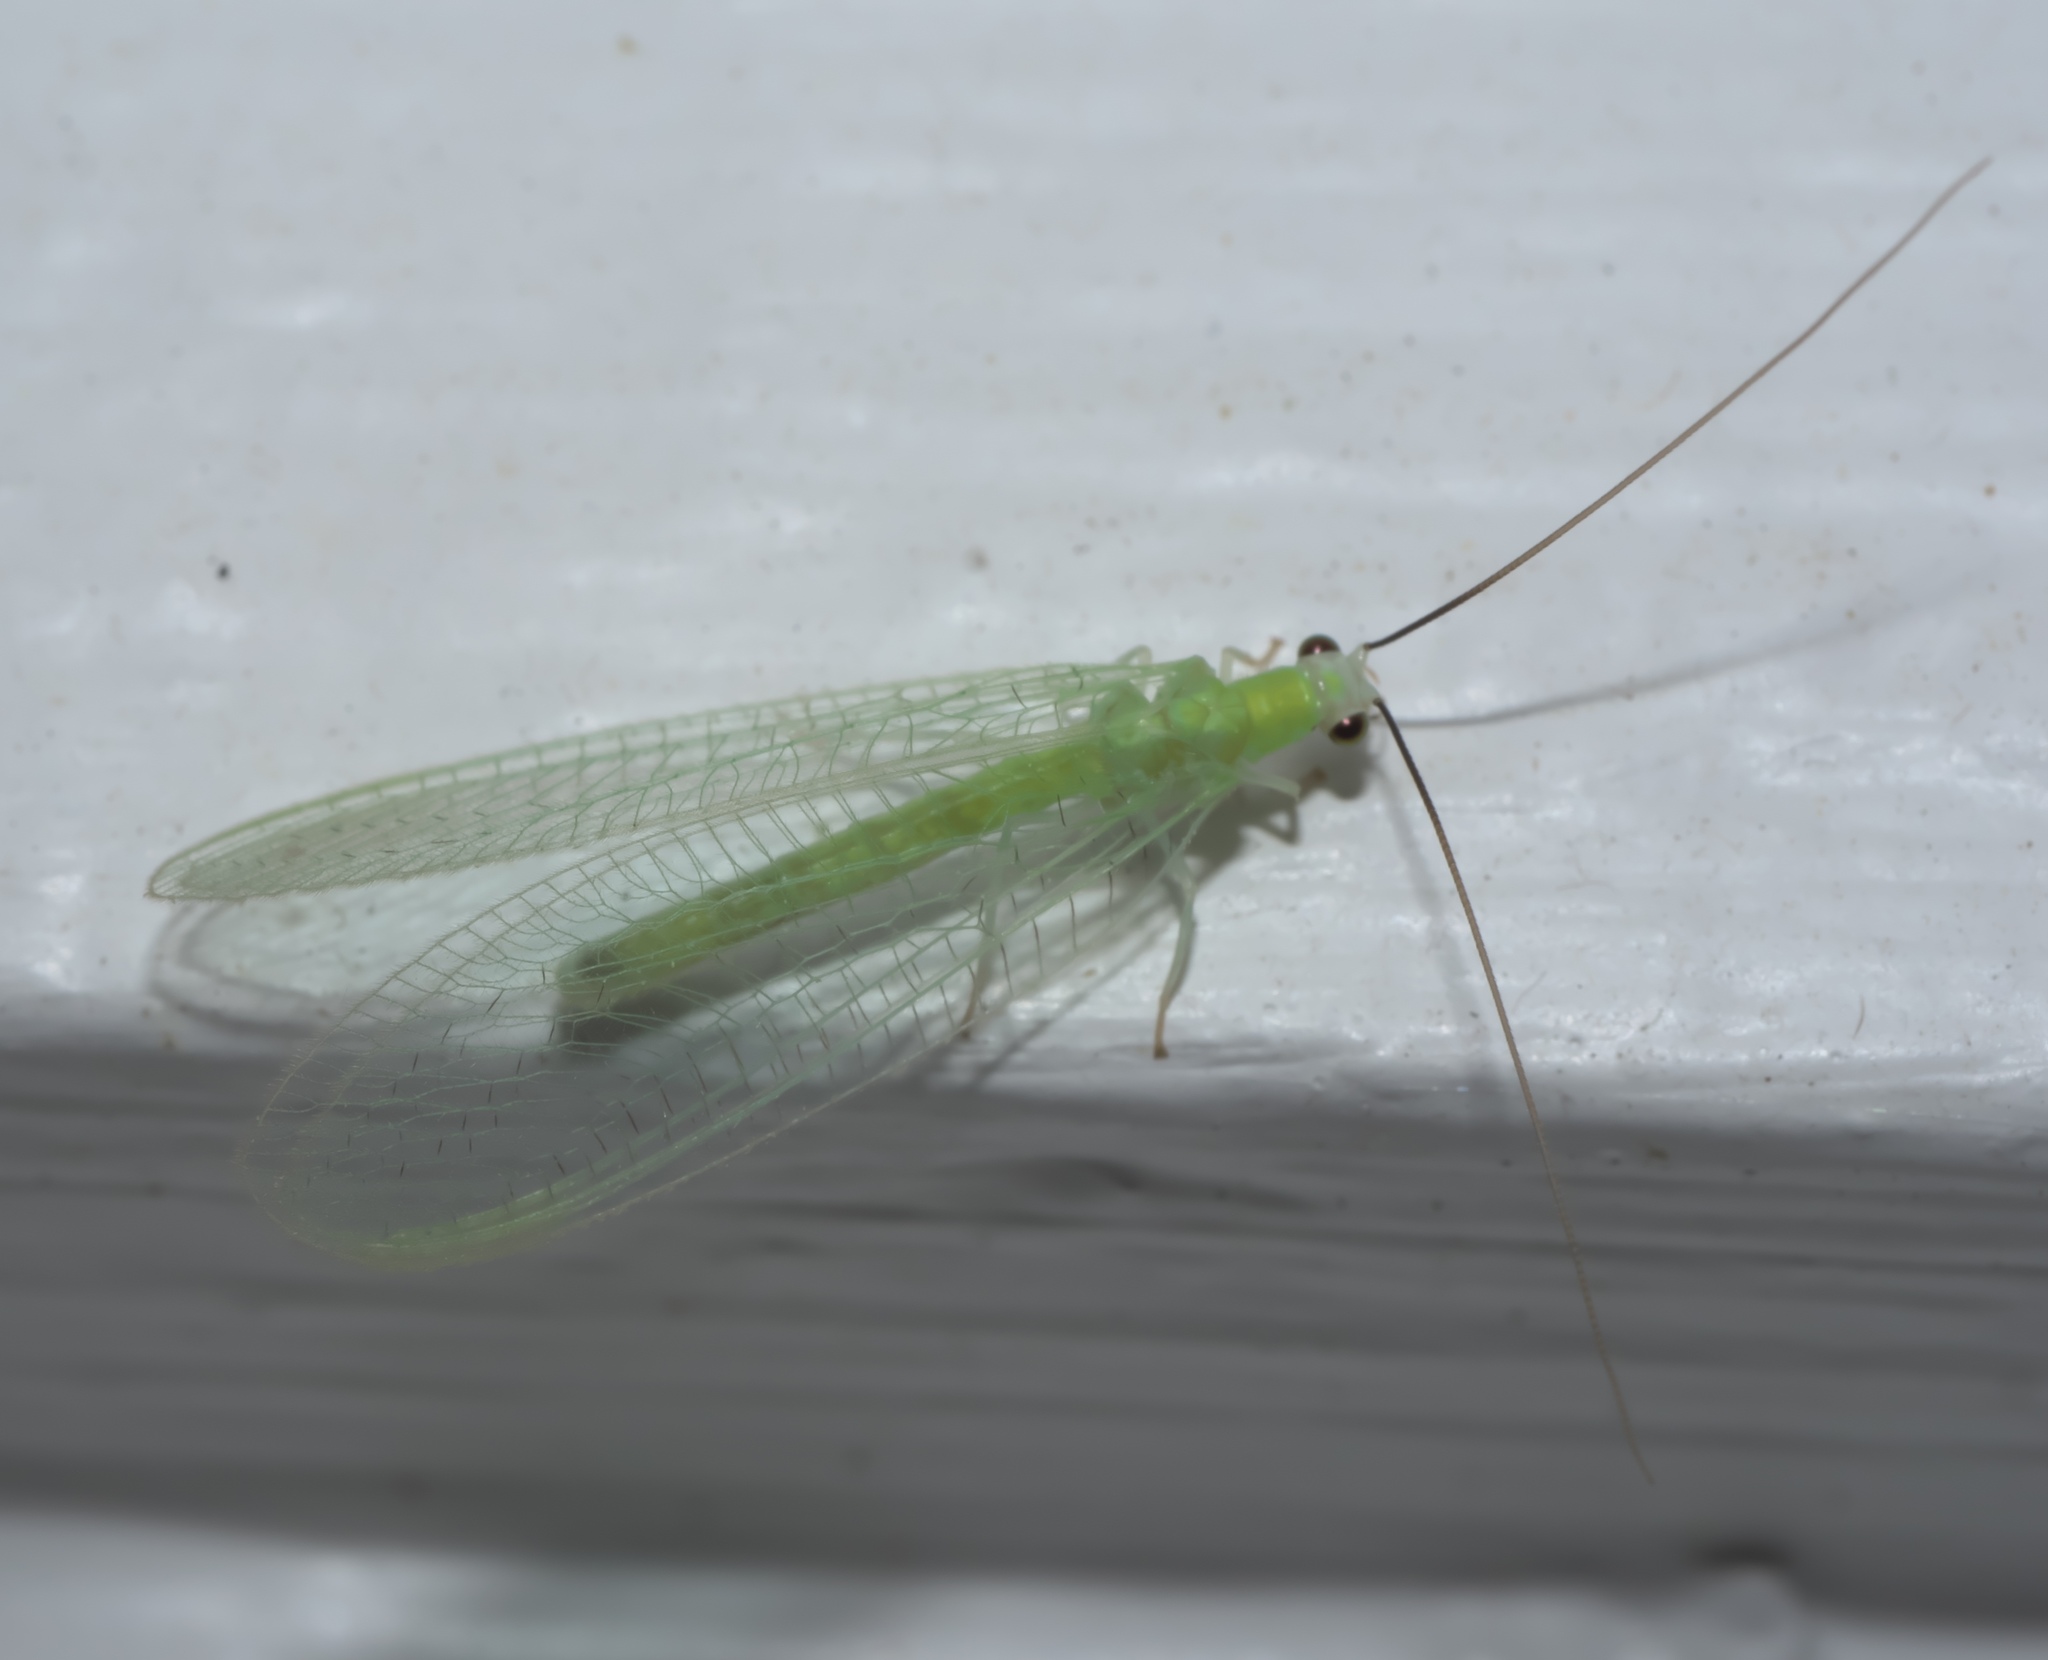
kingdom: Animalia
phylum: Arthropoda
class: Insecta
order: Neuroptera
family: Chrysopidae
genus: Chrysopa
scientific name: Chrysopa nigricornis
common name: Black-horned green lacewing
